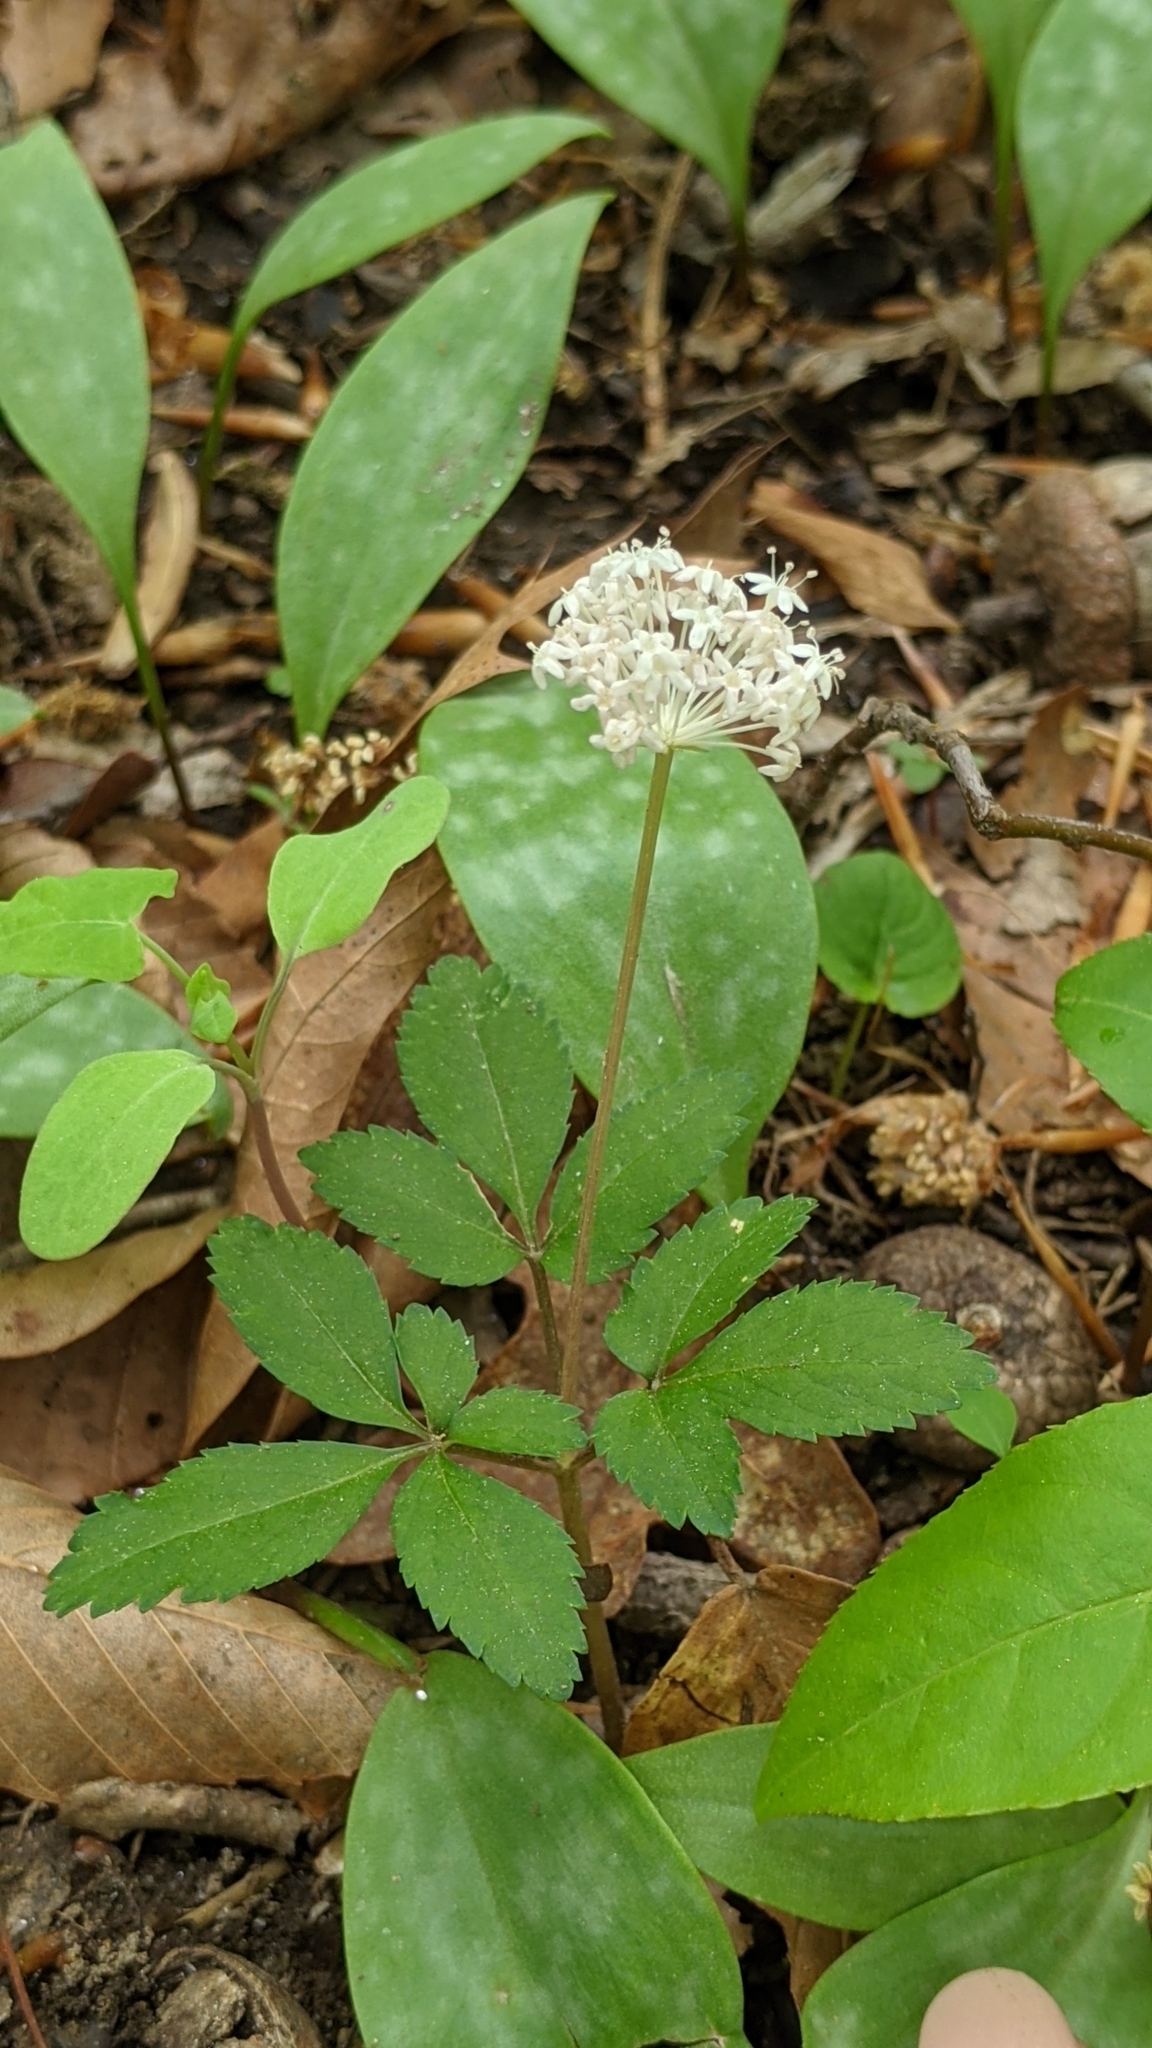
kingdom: Plantae
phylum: Tracheophyta
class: Magnoliopsida
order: Apiales
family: Araliaceae
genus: Panax
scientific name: Panax trifolius
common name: Dwarf ginseng
